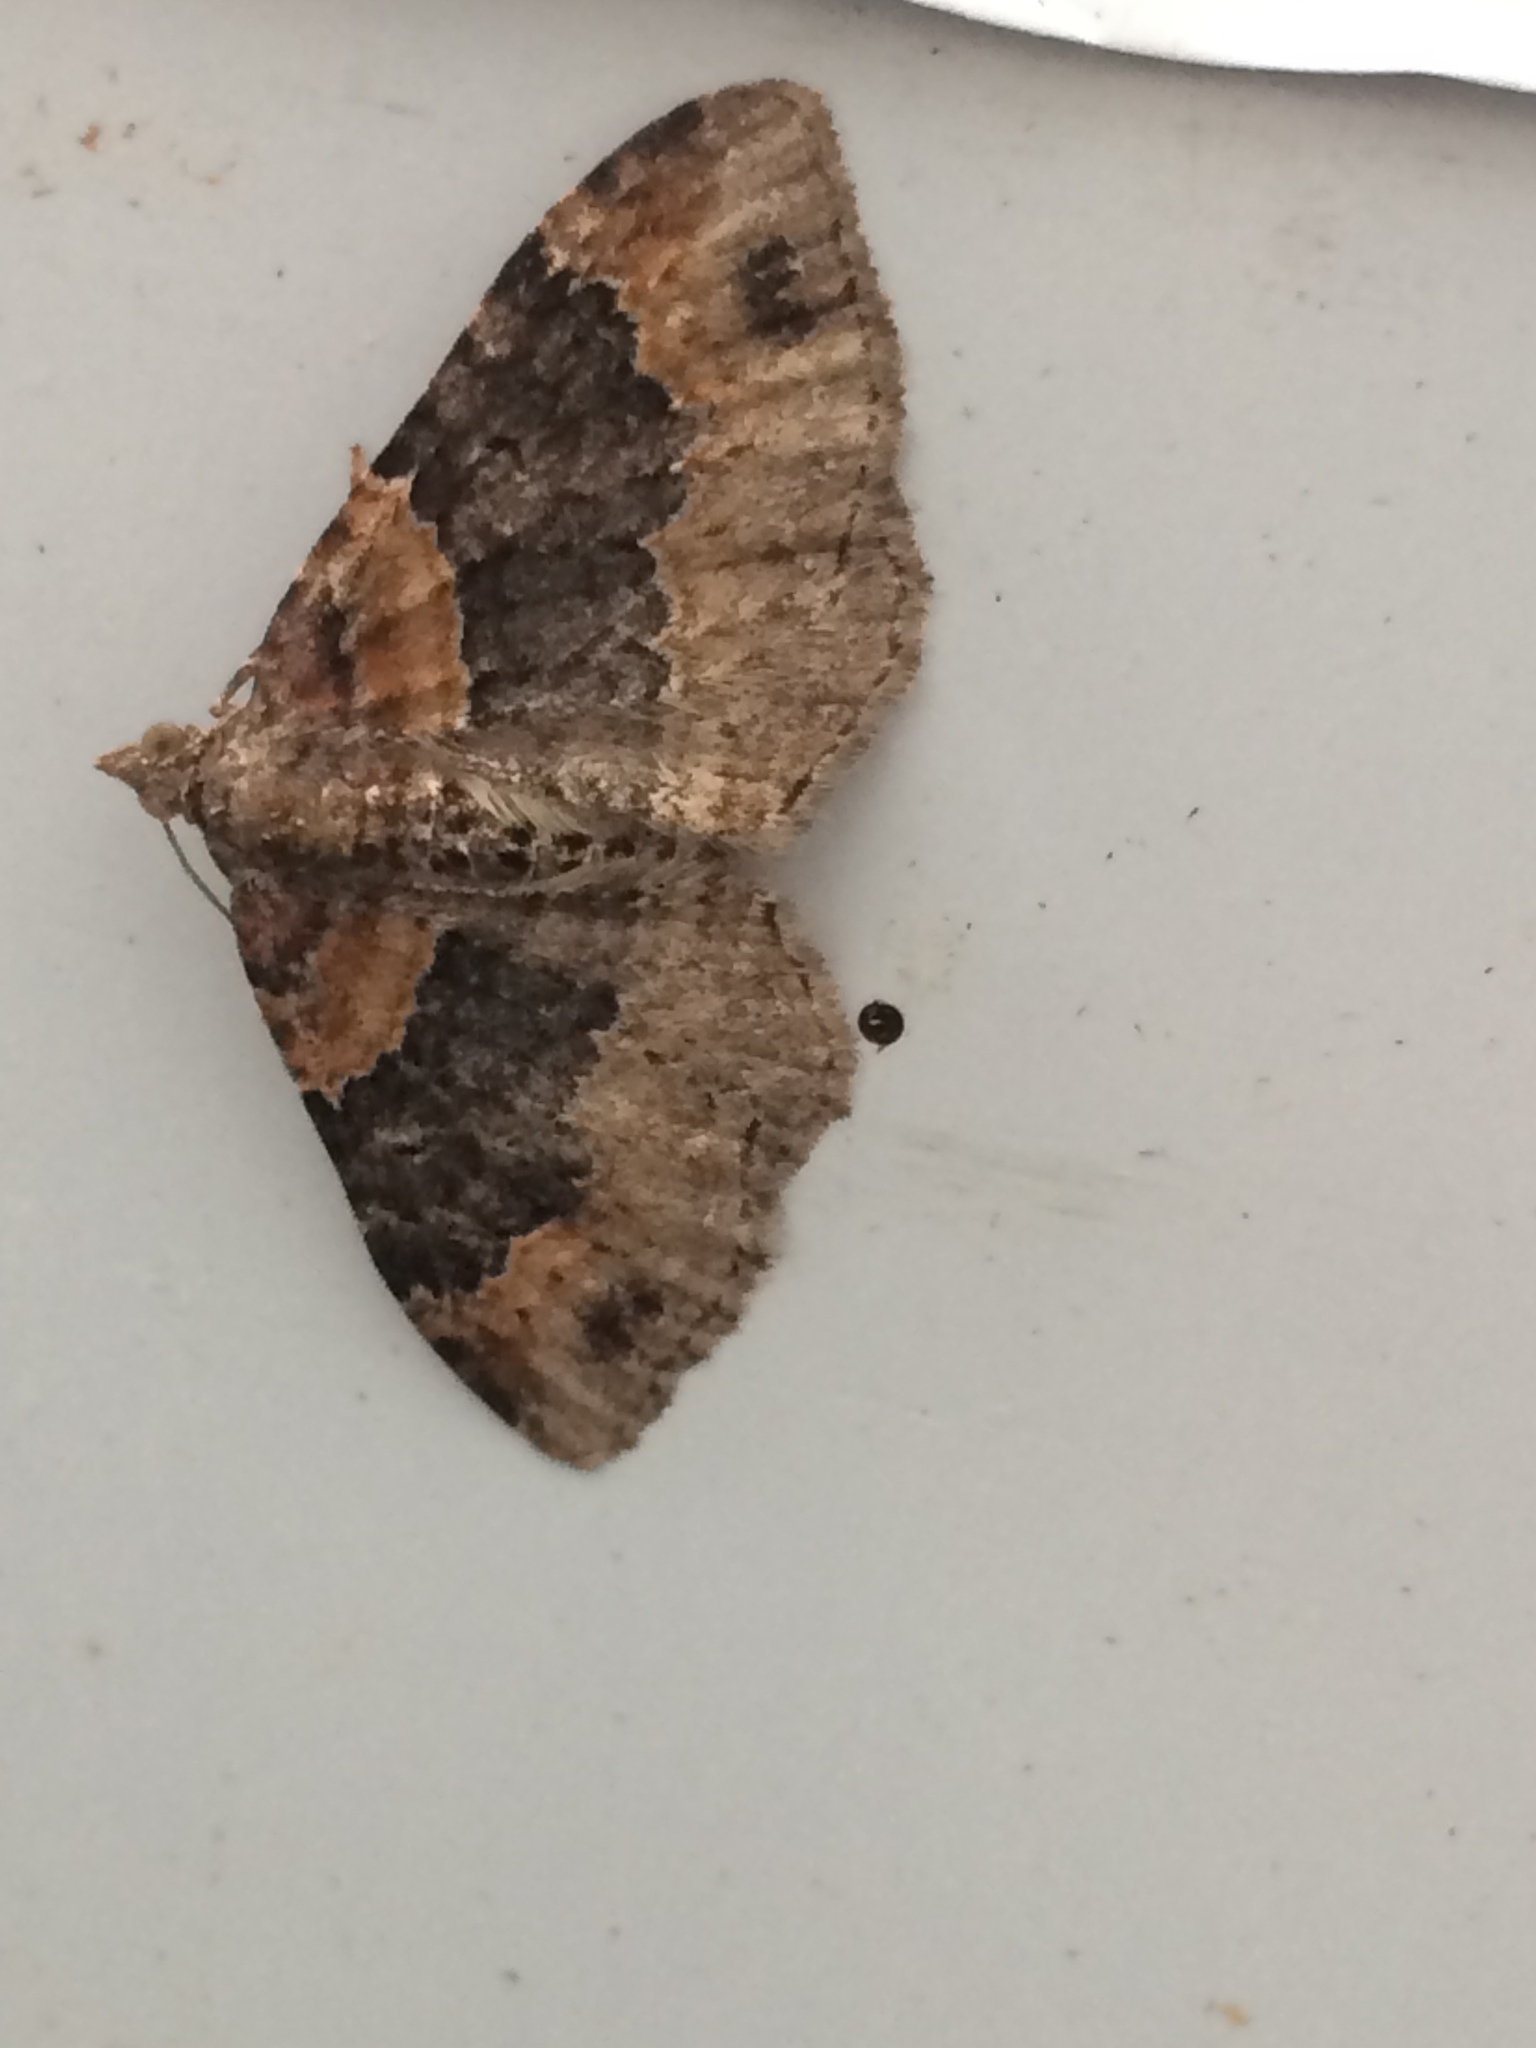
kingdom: Animalia
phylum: Arthropoda
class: Insecta
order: Lepidoptera
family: Geometridae
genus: Xanthorhoe
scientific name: Xanthorhoe ferrugata
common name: Dark-barred twin-spot carpet
